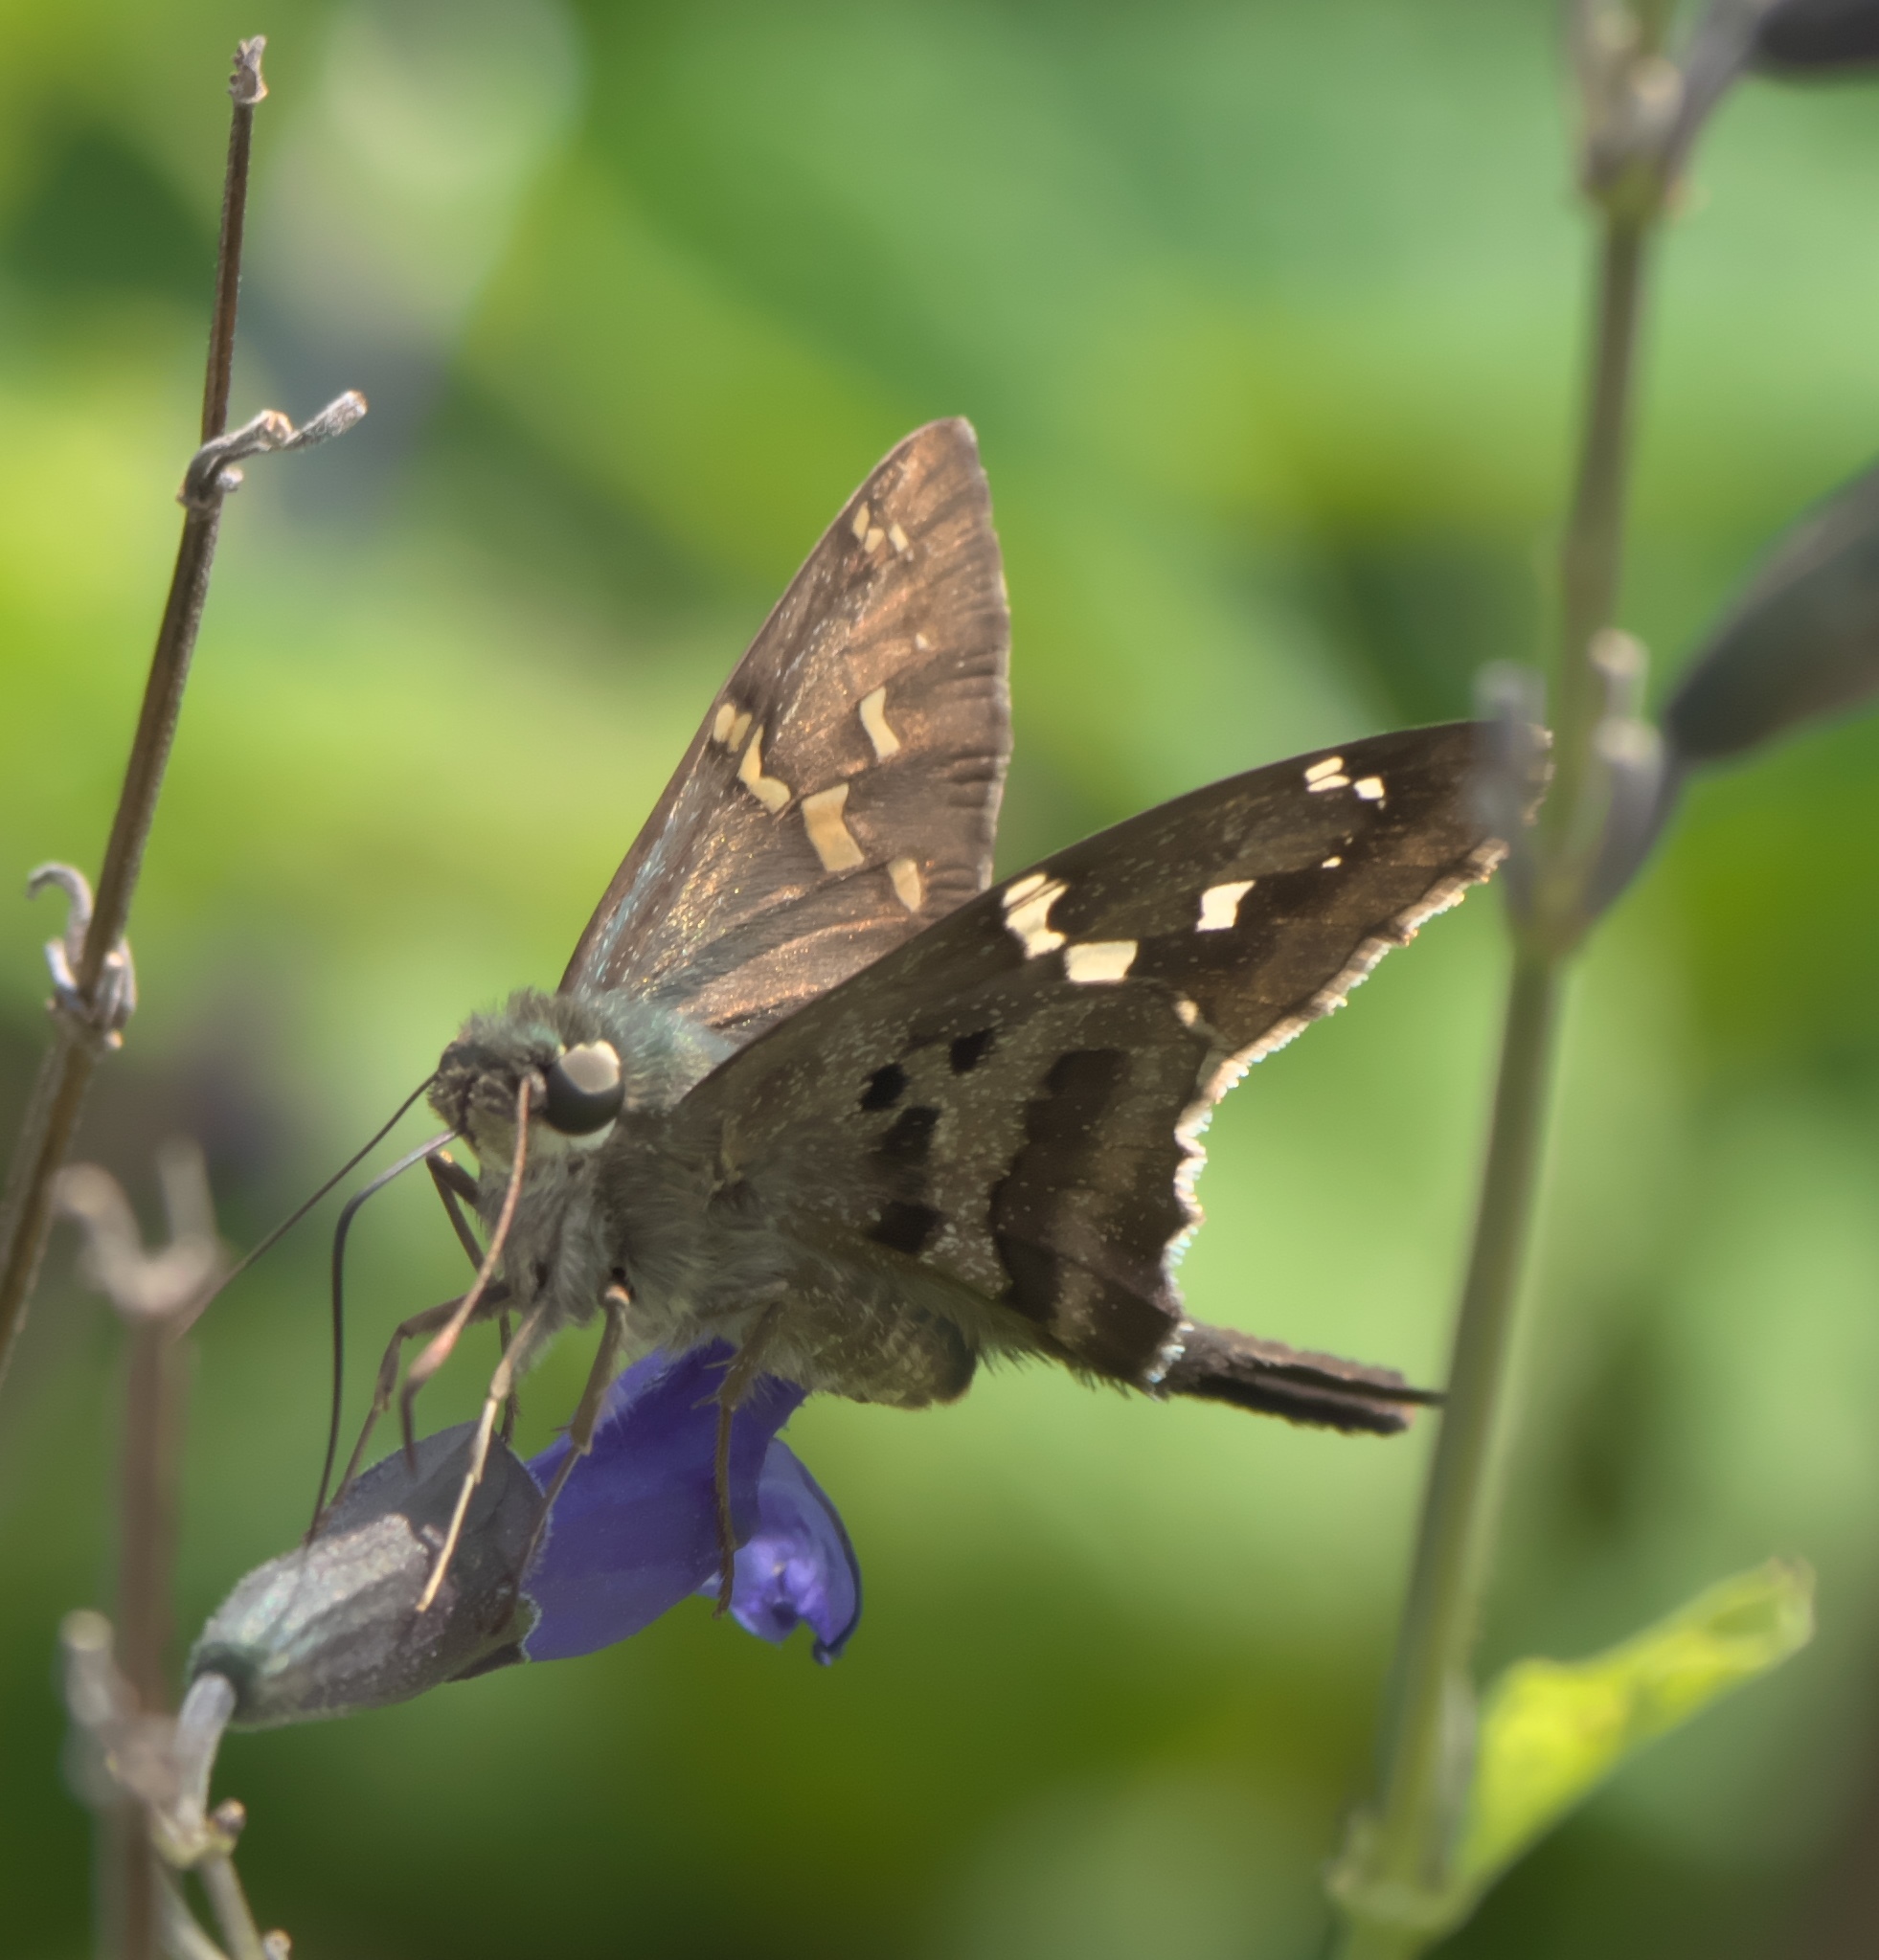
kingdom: Animalia
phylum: Arthropoda
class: Insecta
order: Lepidoptera
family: Hesperiidae
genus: Urbanus
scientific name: Urbanus proteus
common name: Long-tailed skipper
